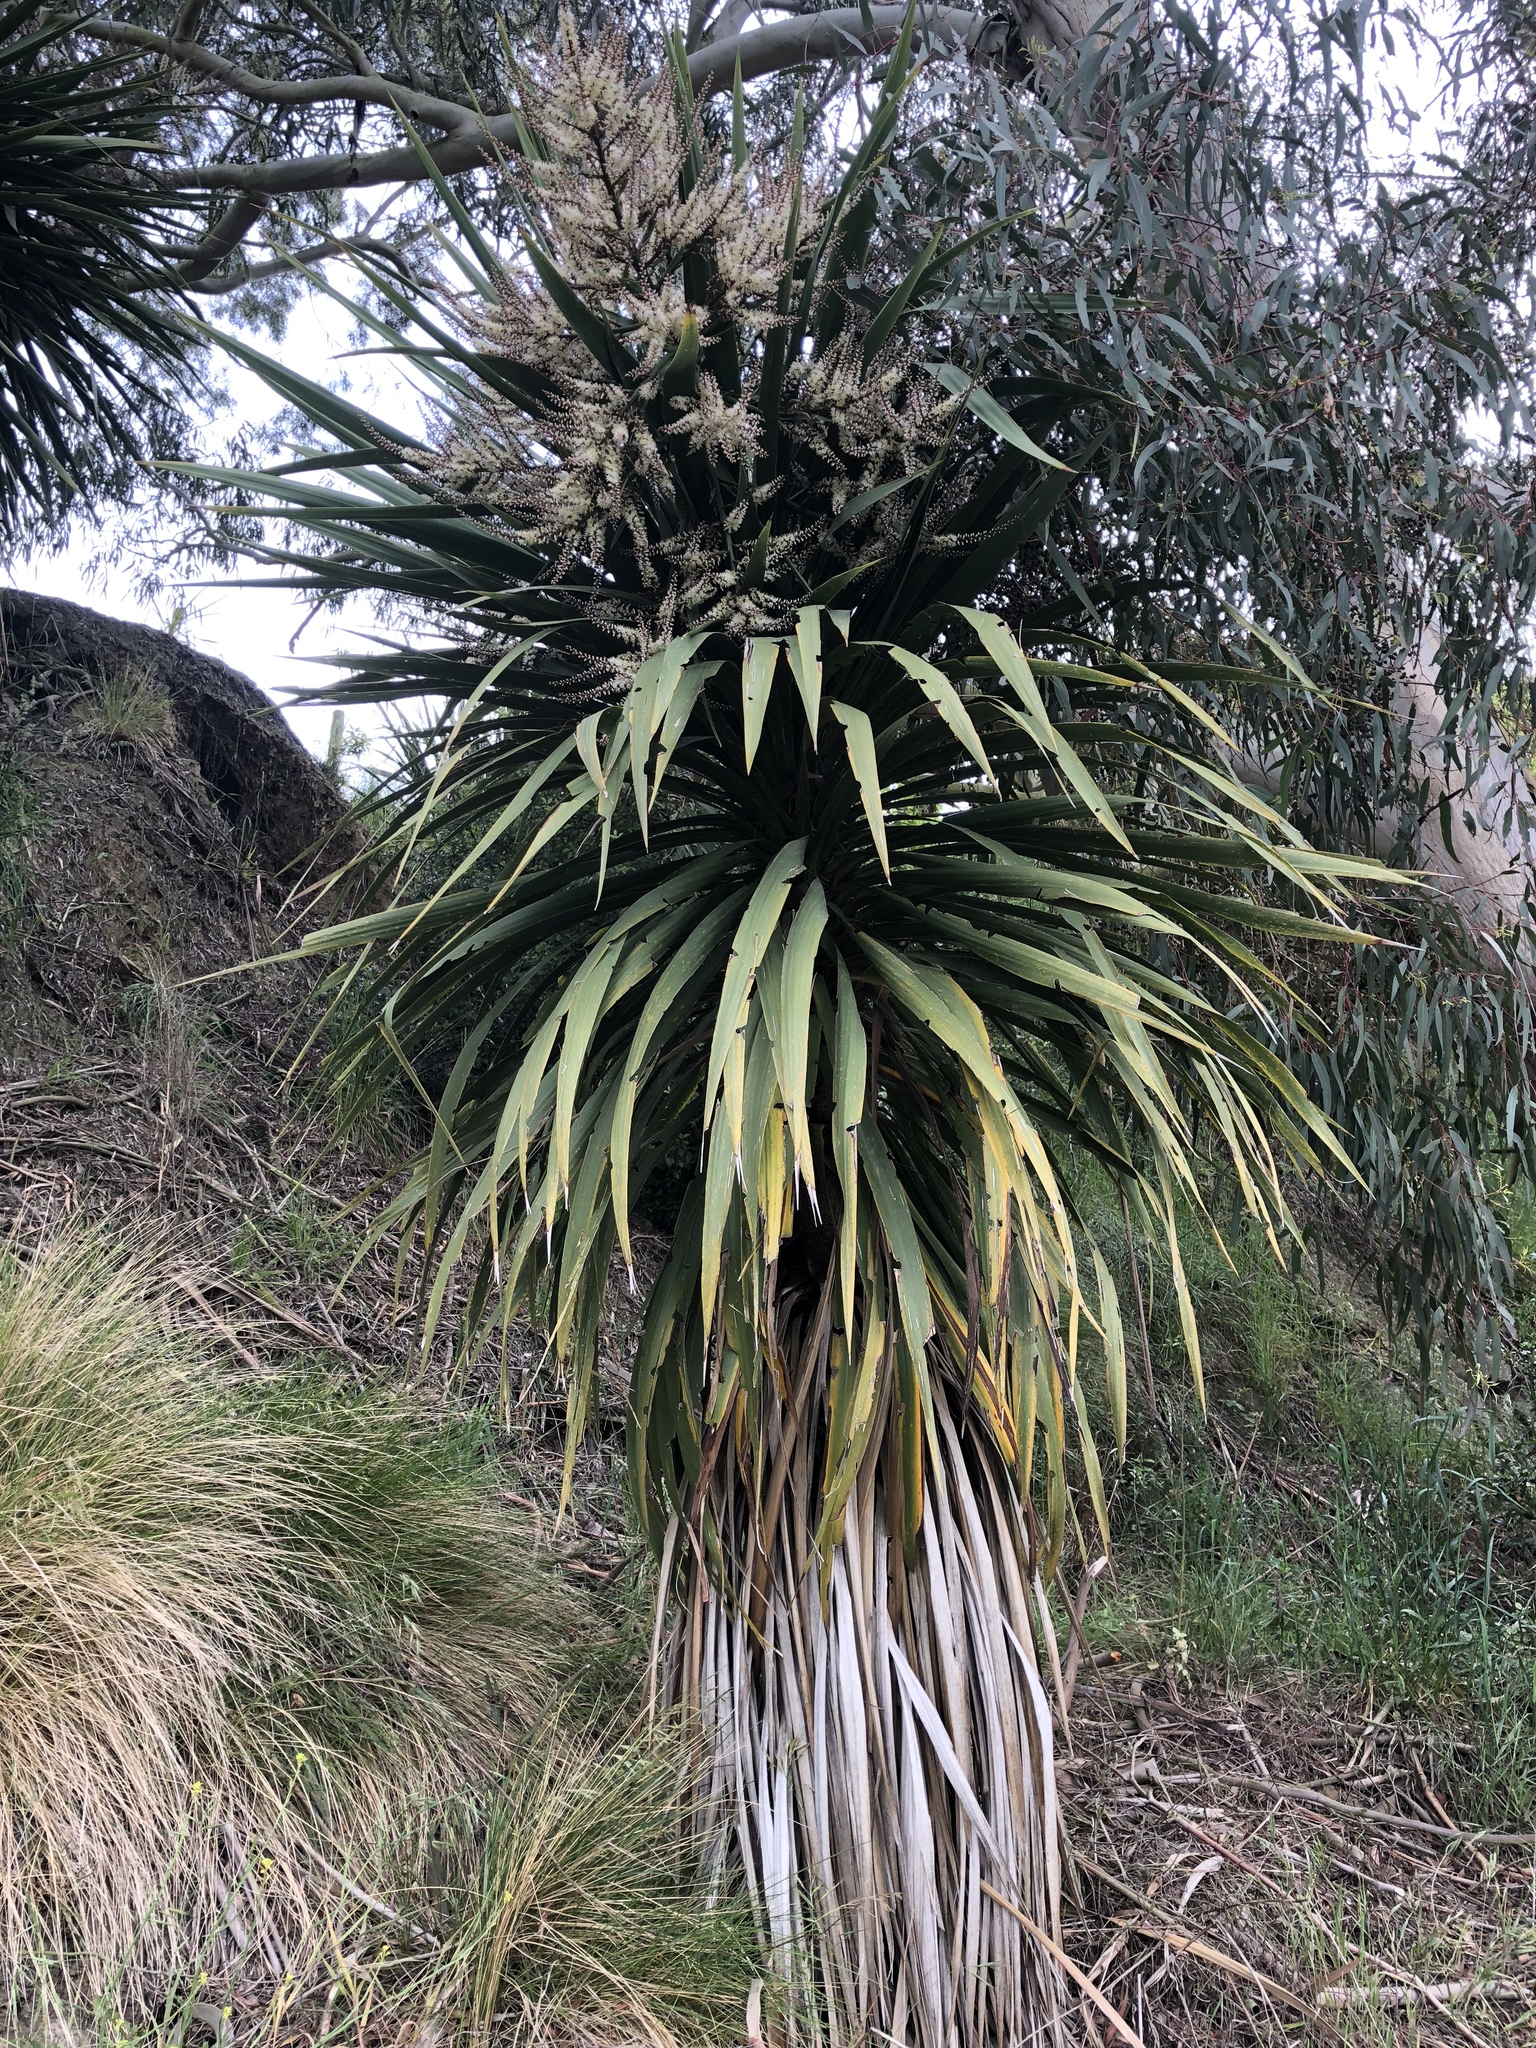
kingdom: Plantae
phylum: Tracheophyta
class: Liliopsida
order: Asparagales
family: Asparagaceae
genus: Cordyline
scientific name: Cordyline australis
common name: Cabbage-palm
